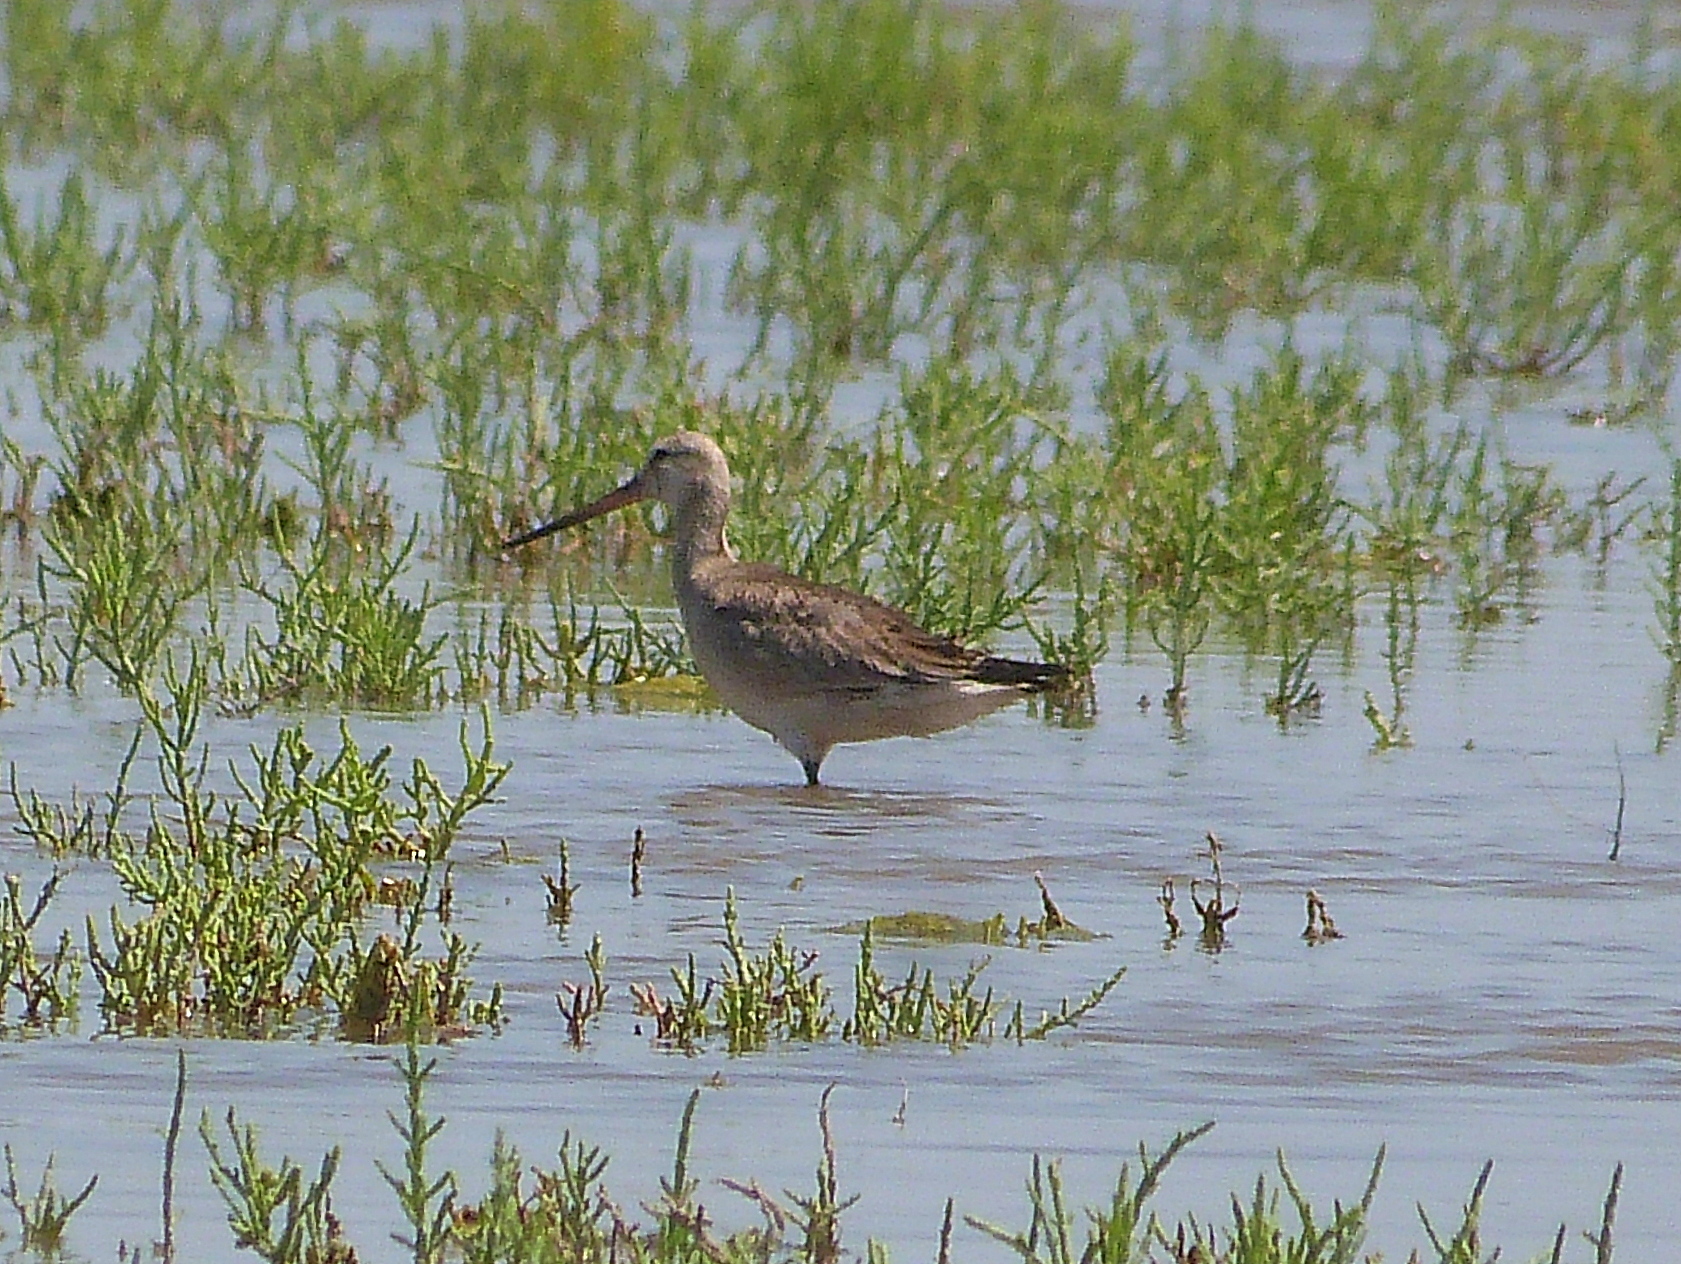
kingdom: Animalia
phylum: Chordata
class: Aves
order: Charadriiformes
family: Scolopacidae
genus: Limosa
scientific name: Limosa haemastica
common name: Hudsonian godwit
